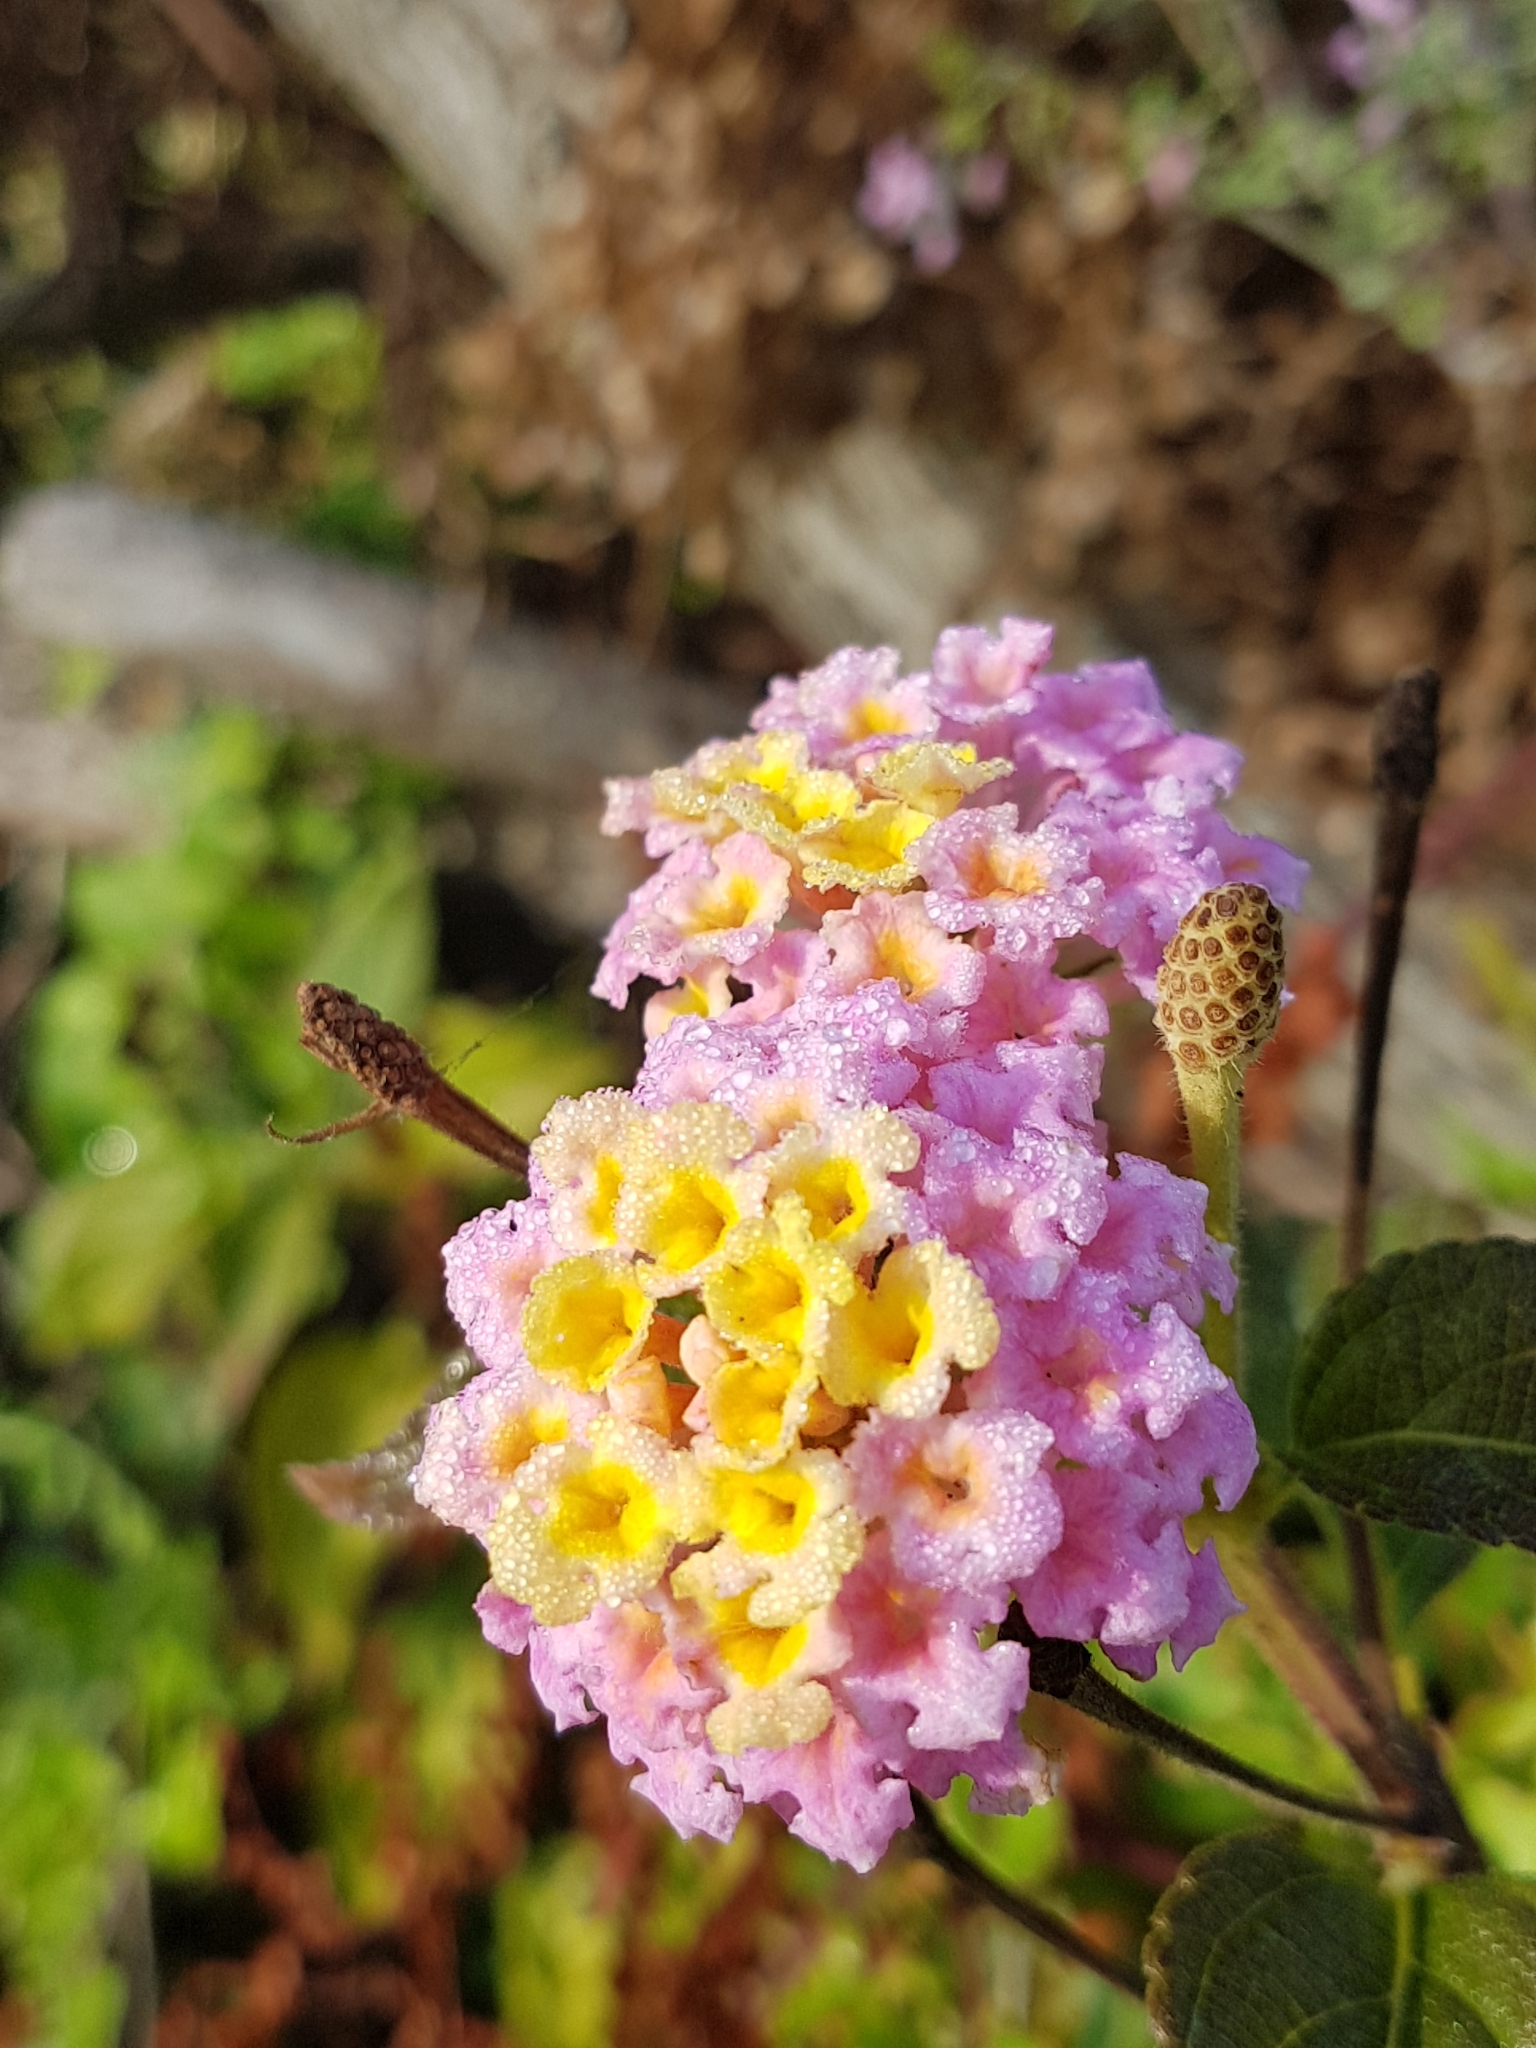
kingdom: Plantae
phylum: Tracheophyta
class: Magnoliopsida
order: Lamiales
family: Verbenaceae
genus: Lantana
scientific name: Lantana camara
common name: Lantana
